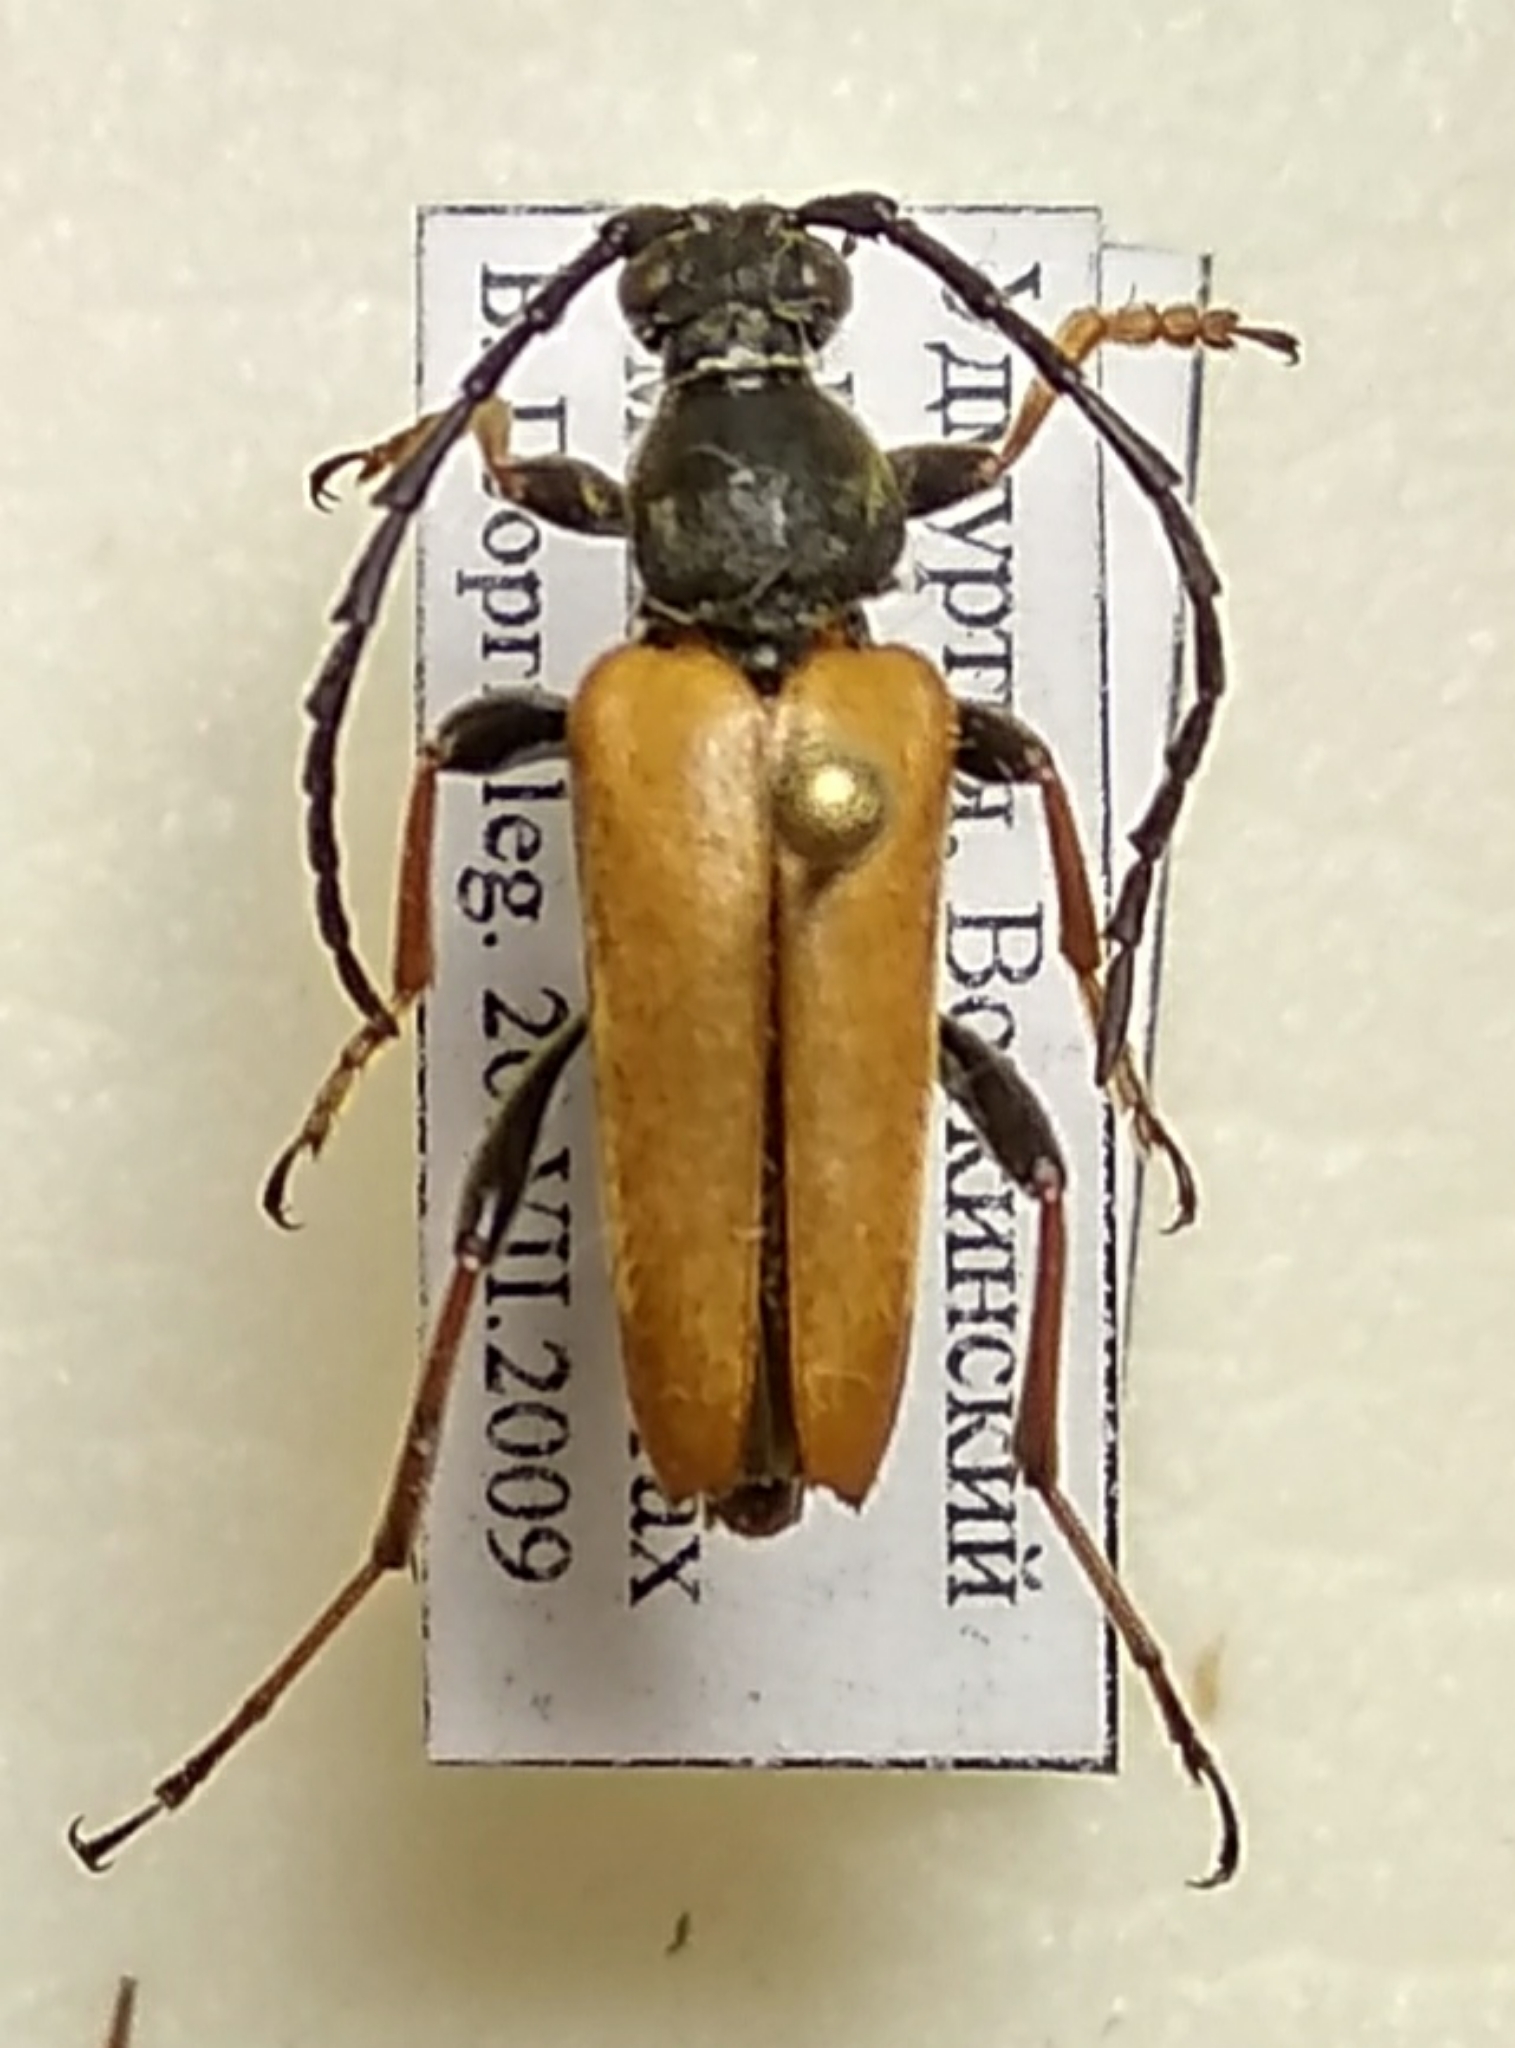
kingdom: Animalia
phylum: Arthropoda
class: Insecta
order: Coleoptera
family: Cerambycidae
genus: Stictoleptura
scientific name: Stictoleptura rubra
